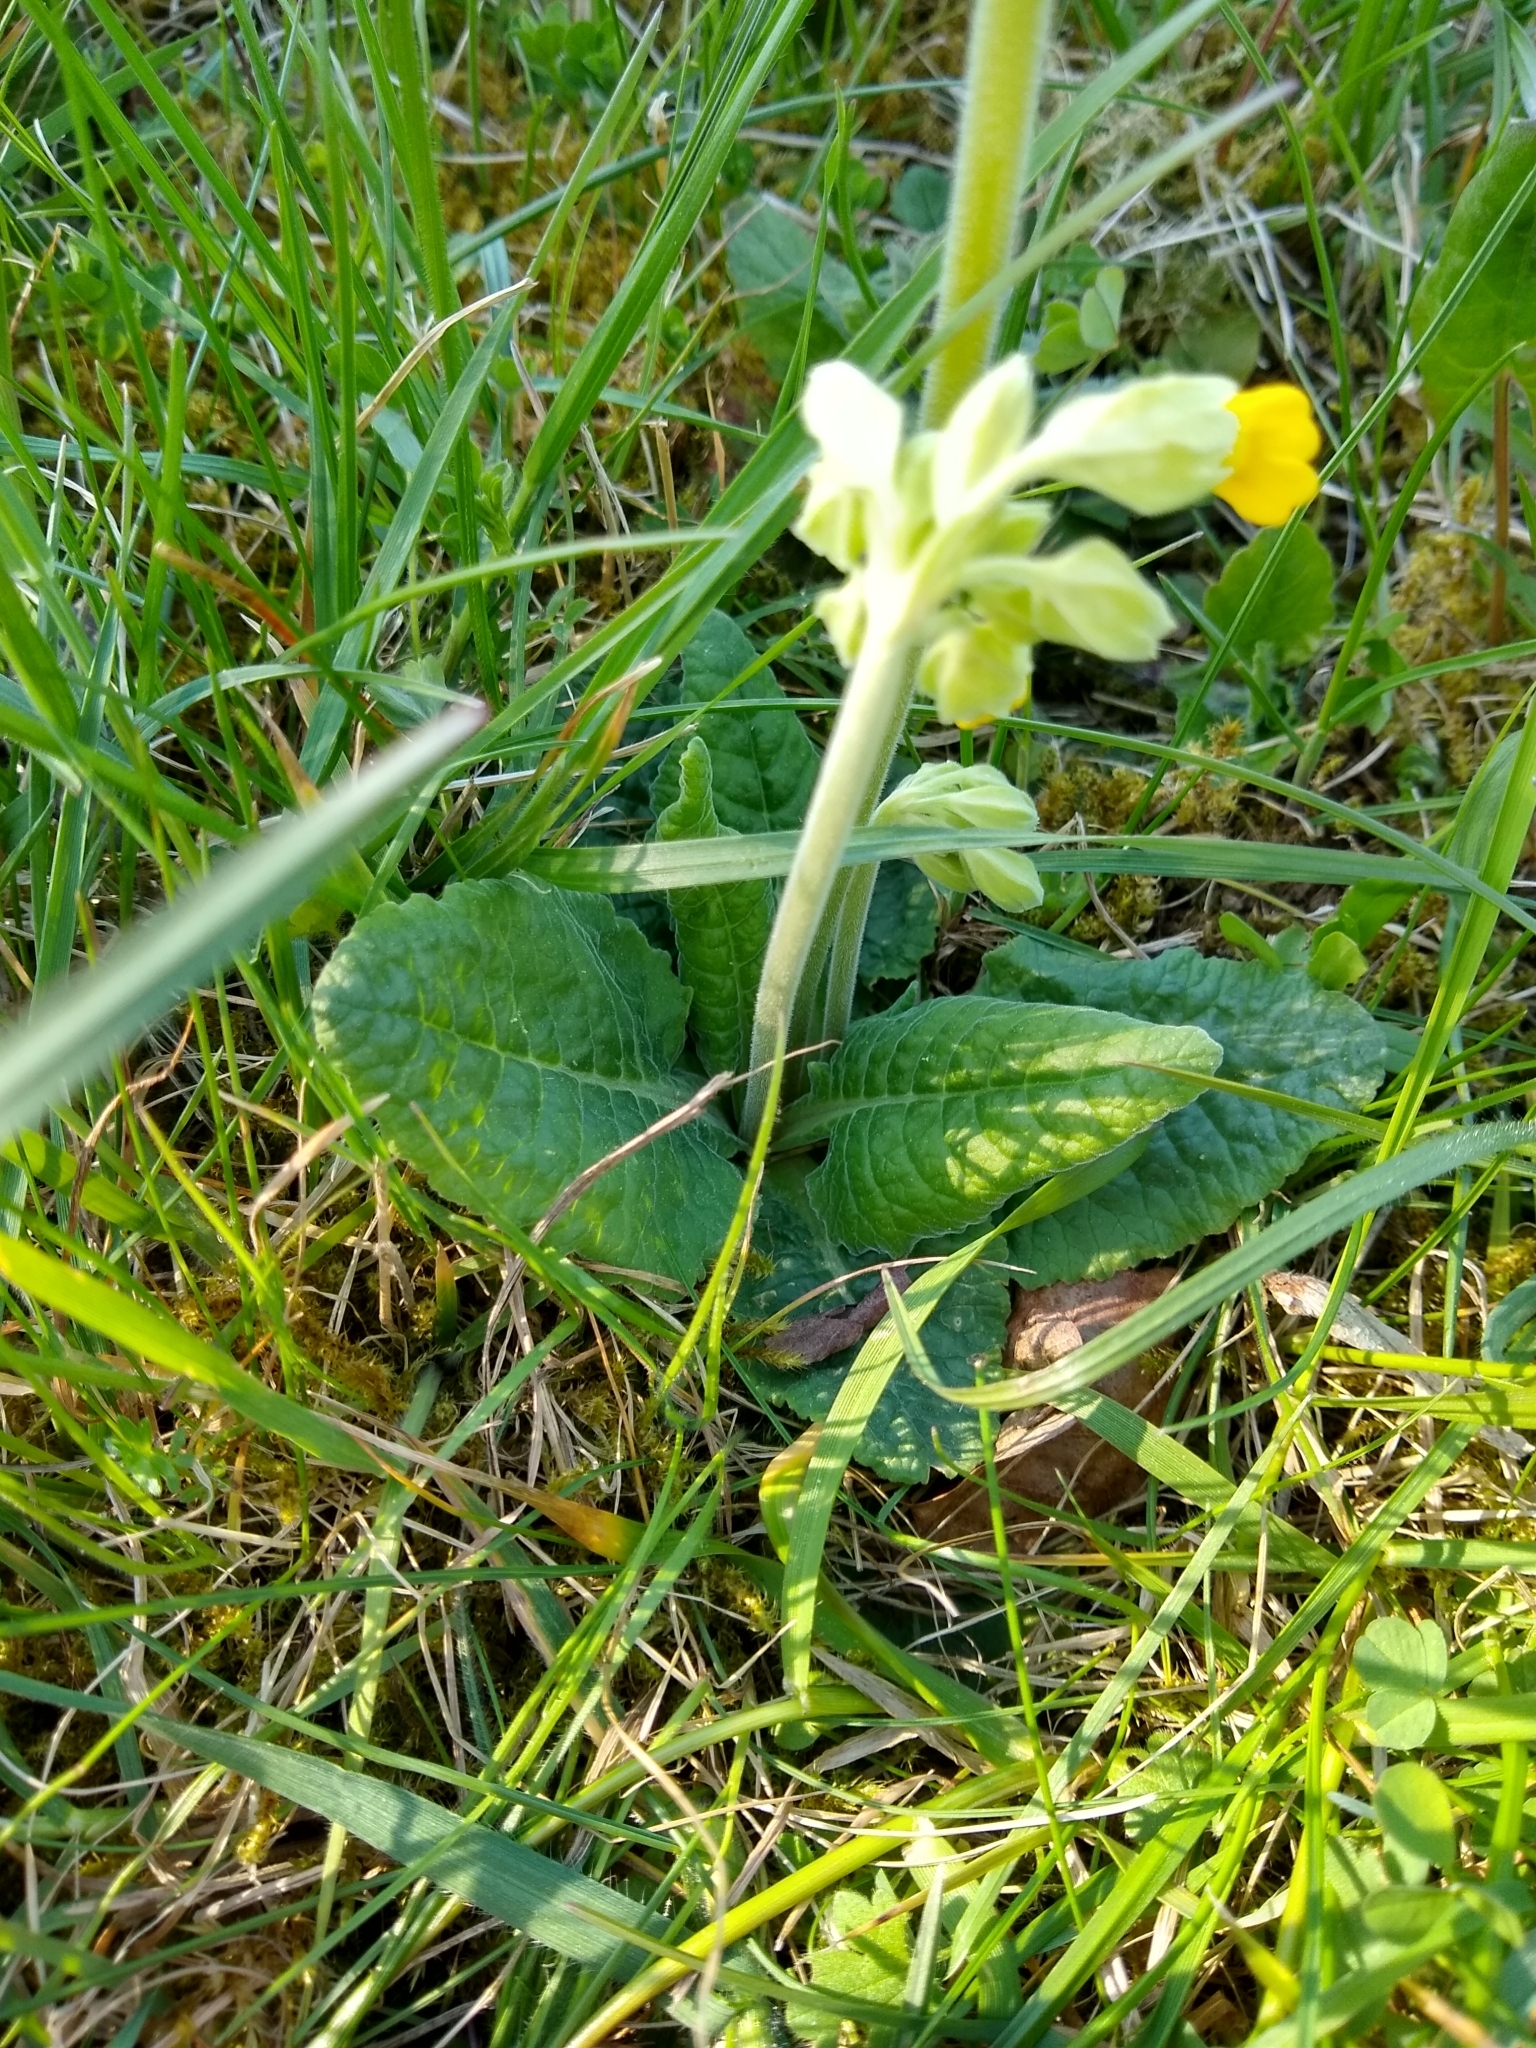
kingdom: Plantae
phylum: Tracheophyta
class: Magnoliopsida
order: Ericales
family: Primulaceae
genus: Primula
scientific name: Primula veris
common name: Cowslip
